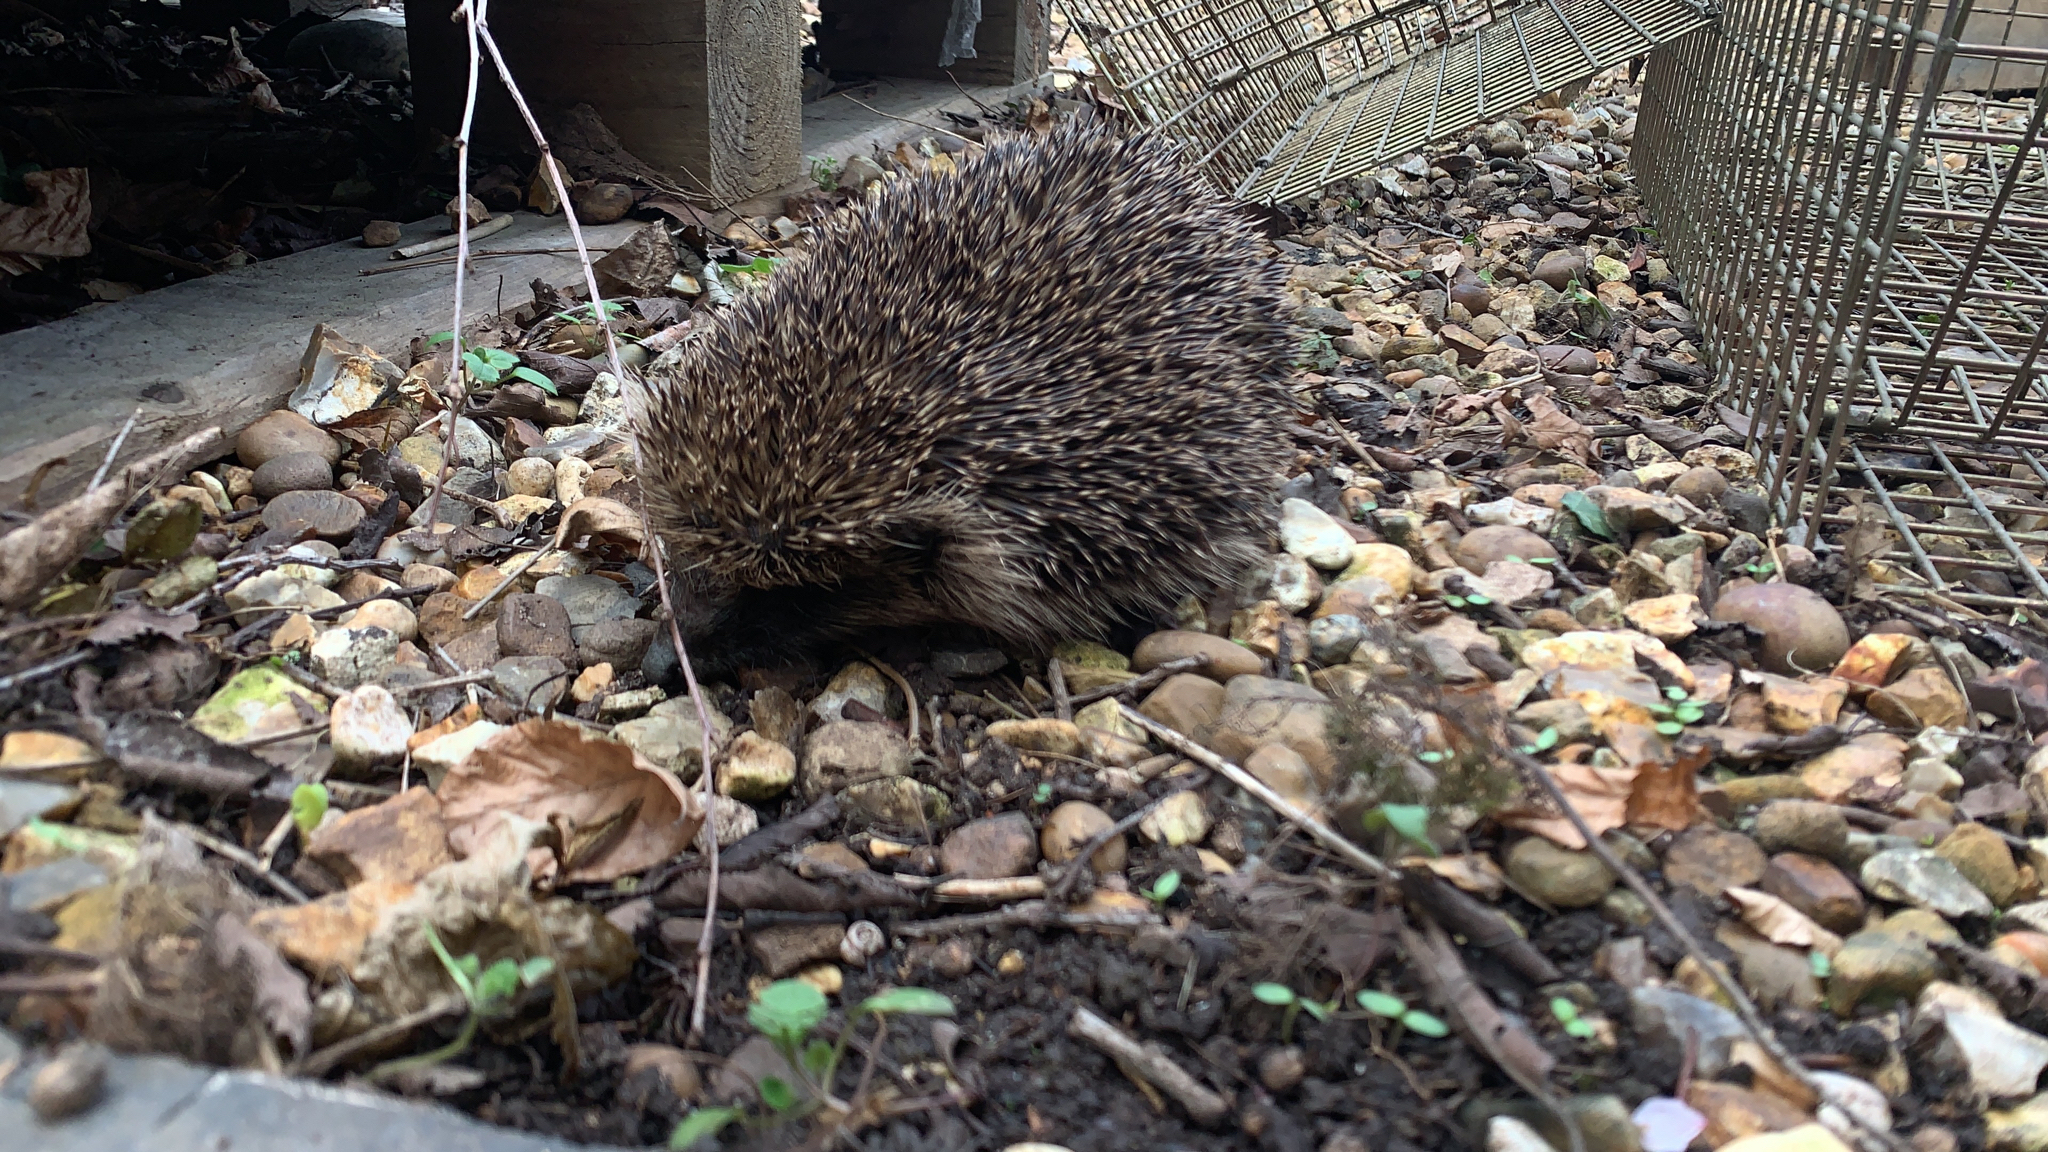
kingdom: Animalia
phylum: Chordata
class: Mammalia
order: Erinaceomorpha
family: Erinaceidae
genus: Erinaceus
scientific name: Erinaceus europaeus
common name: West european hedgehog
